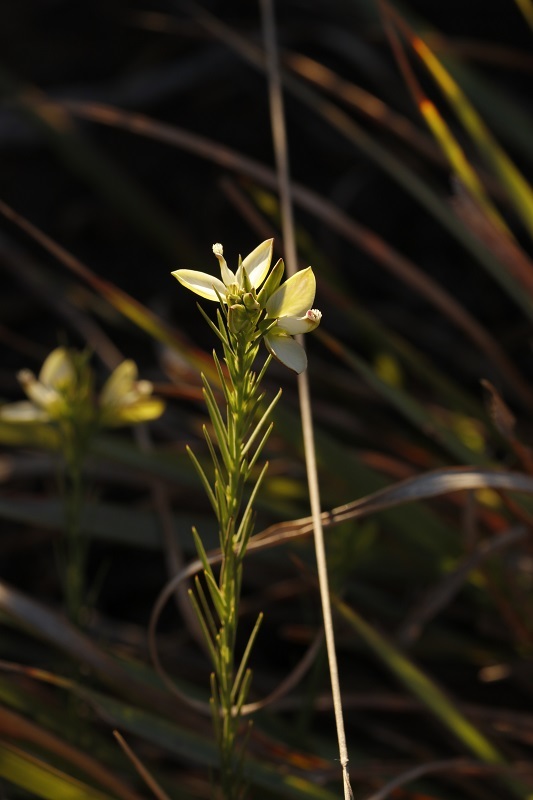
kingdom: Plantae
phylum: Tracheophyta
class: Magnoliopsida
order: Fabales
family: Polygalaceae
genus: Polygala
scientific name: Polygala ericifolia
